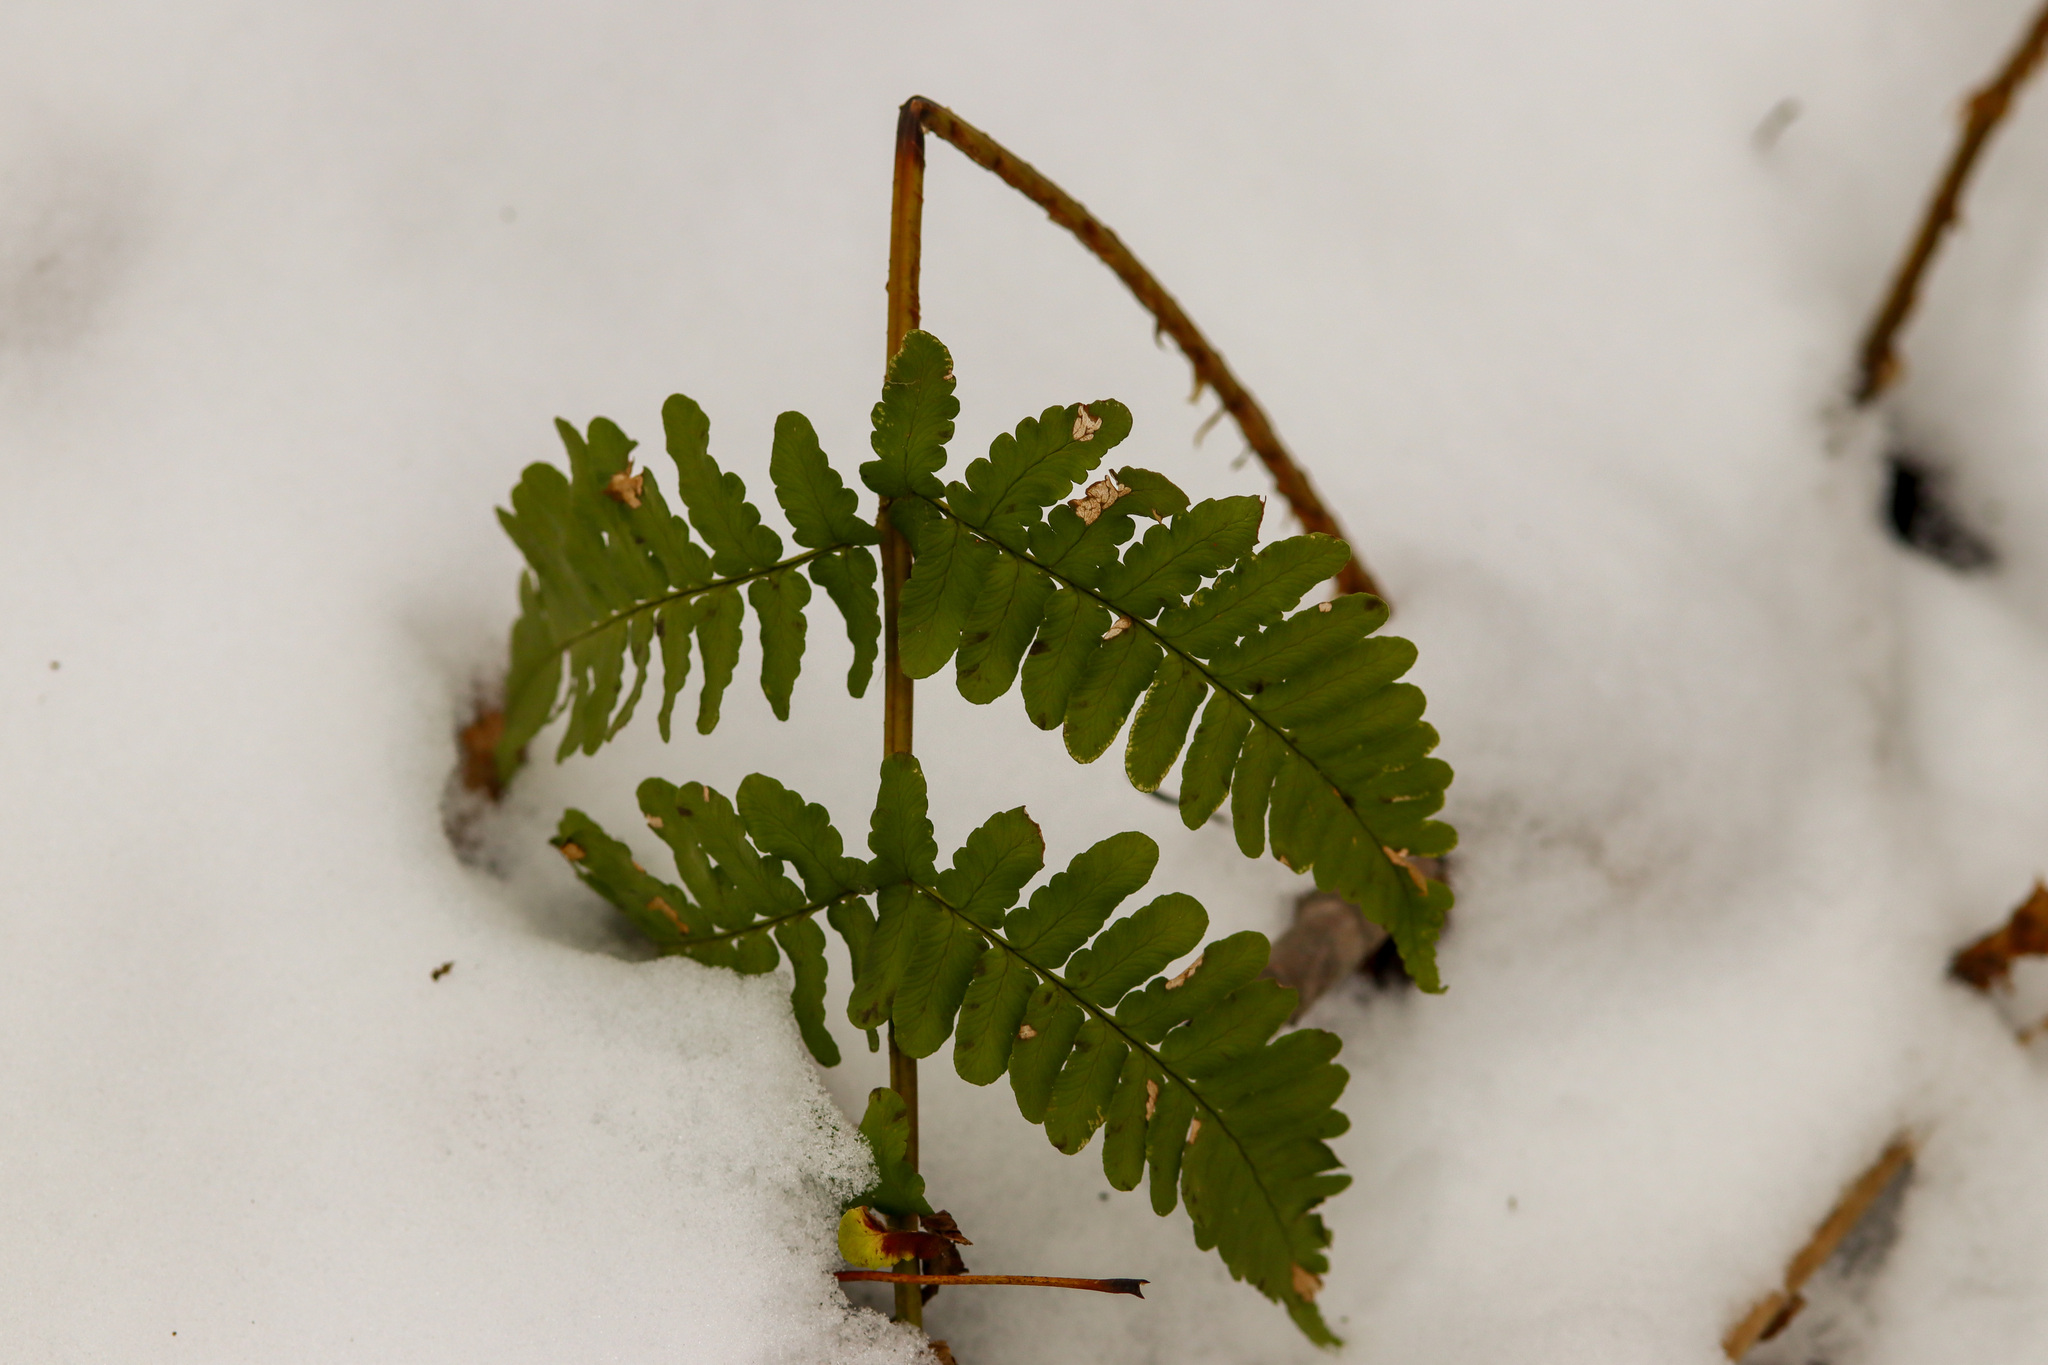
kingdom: Plantae
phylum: Tracheophyta
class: Polypodiopsida
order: Polypodiales
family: Dryopteridaceae
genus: Dryopteris
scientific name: Dryopteris marginalis
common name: Marginal wood fern
